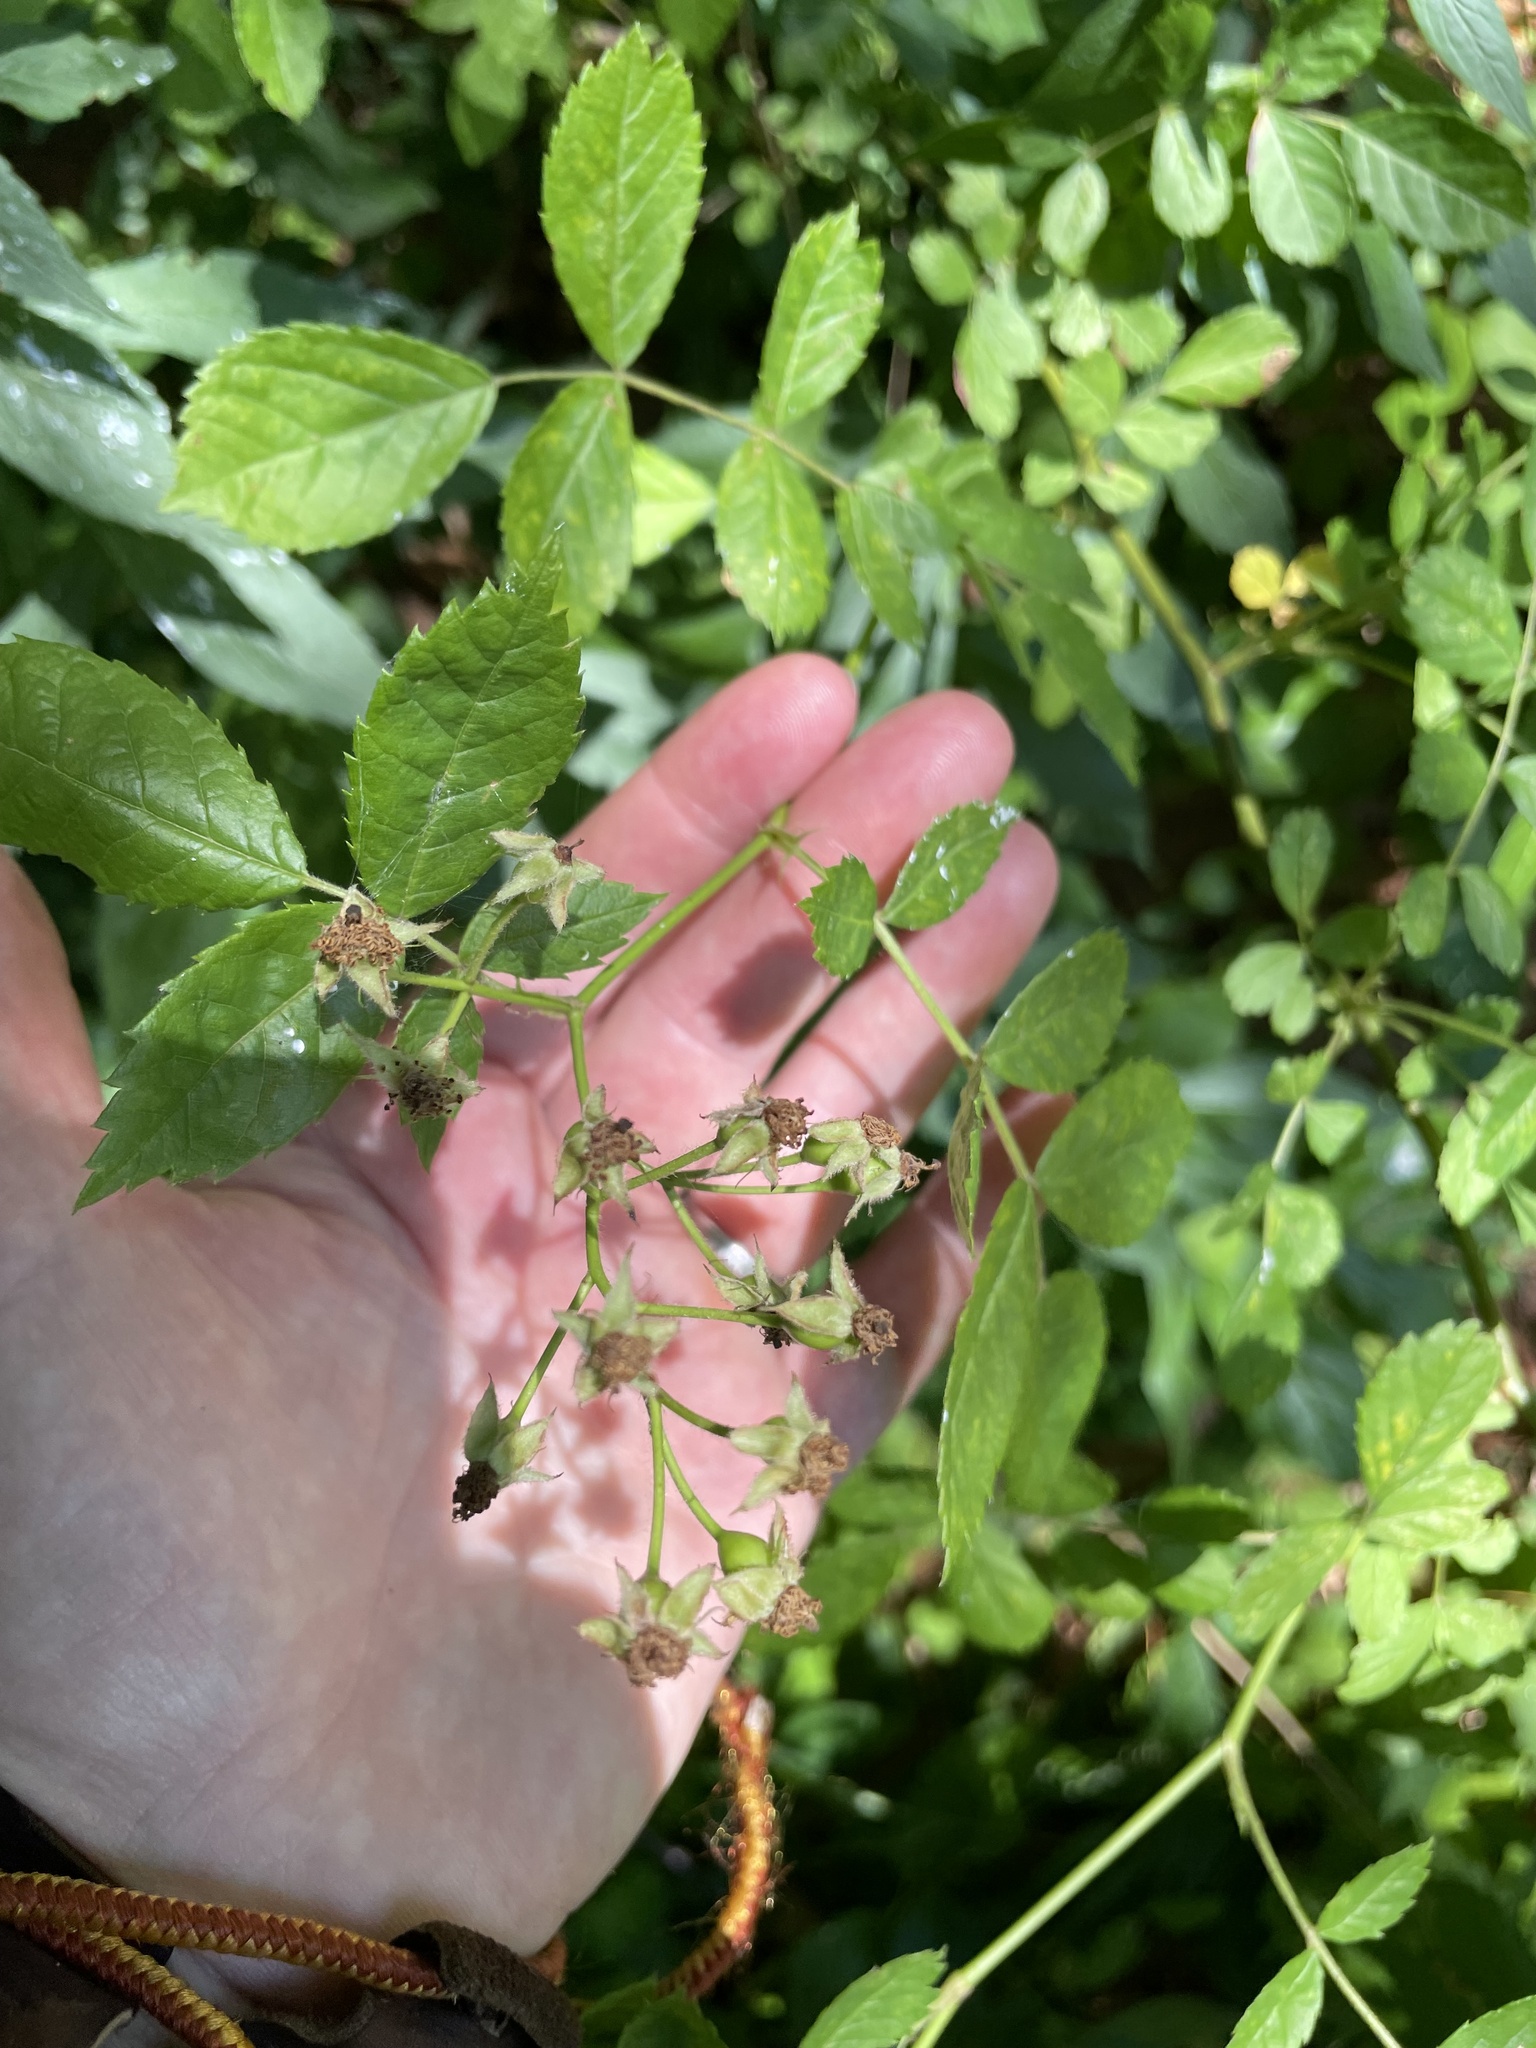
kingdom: Plantae
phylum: Tracheophyta
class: Magnoliopsida
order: Rosales
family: Rosaceae
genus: Rosa
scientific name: Rosa multiflora
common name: Multiflora rose
